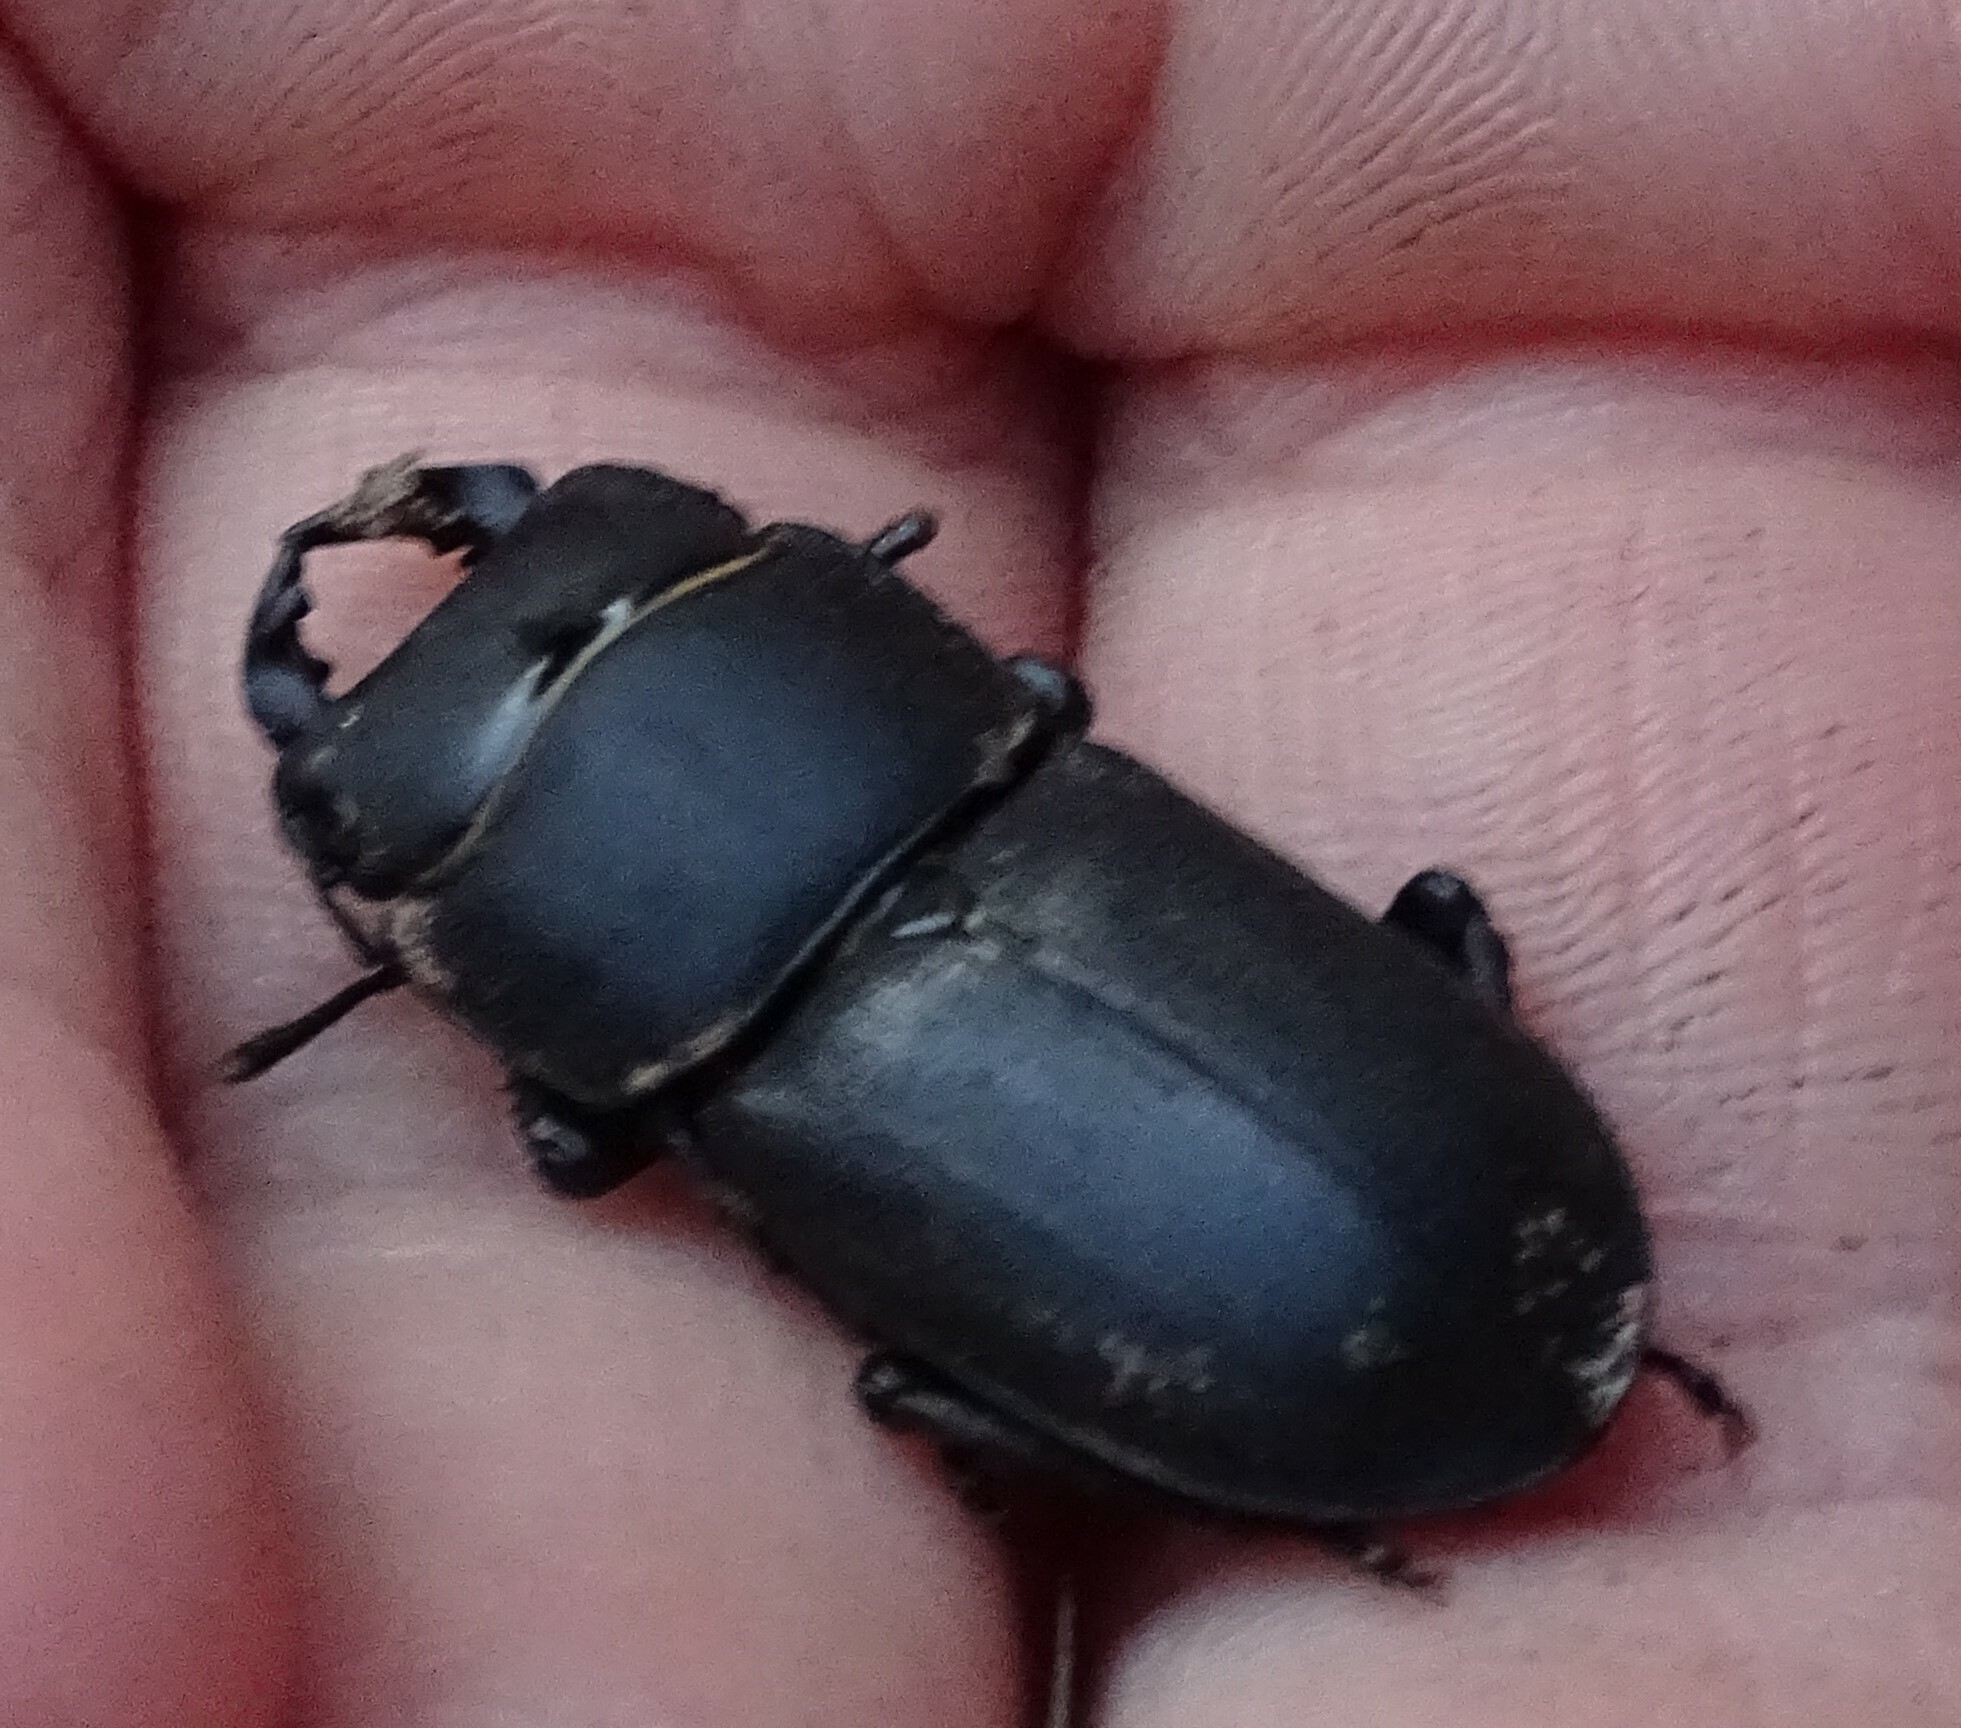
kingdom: Animalia
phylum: Arthropoda
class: Insecta
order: Coleoptera
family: Lucanidae
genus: Dorcus
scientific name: Dorcus parallelipipedus
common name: Lesser stag beetle
